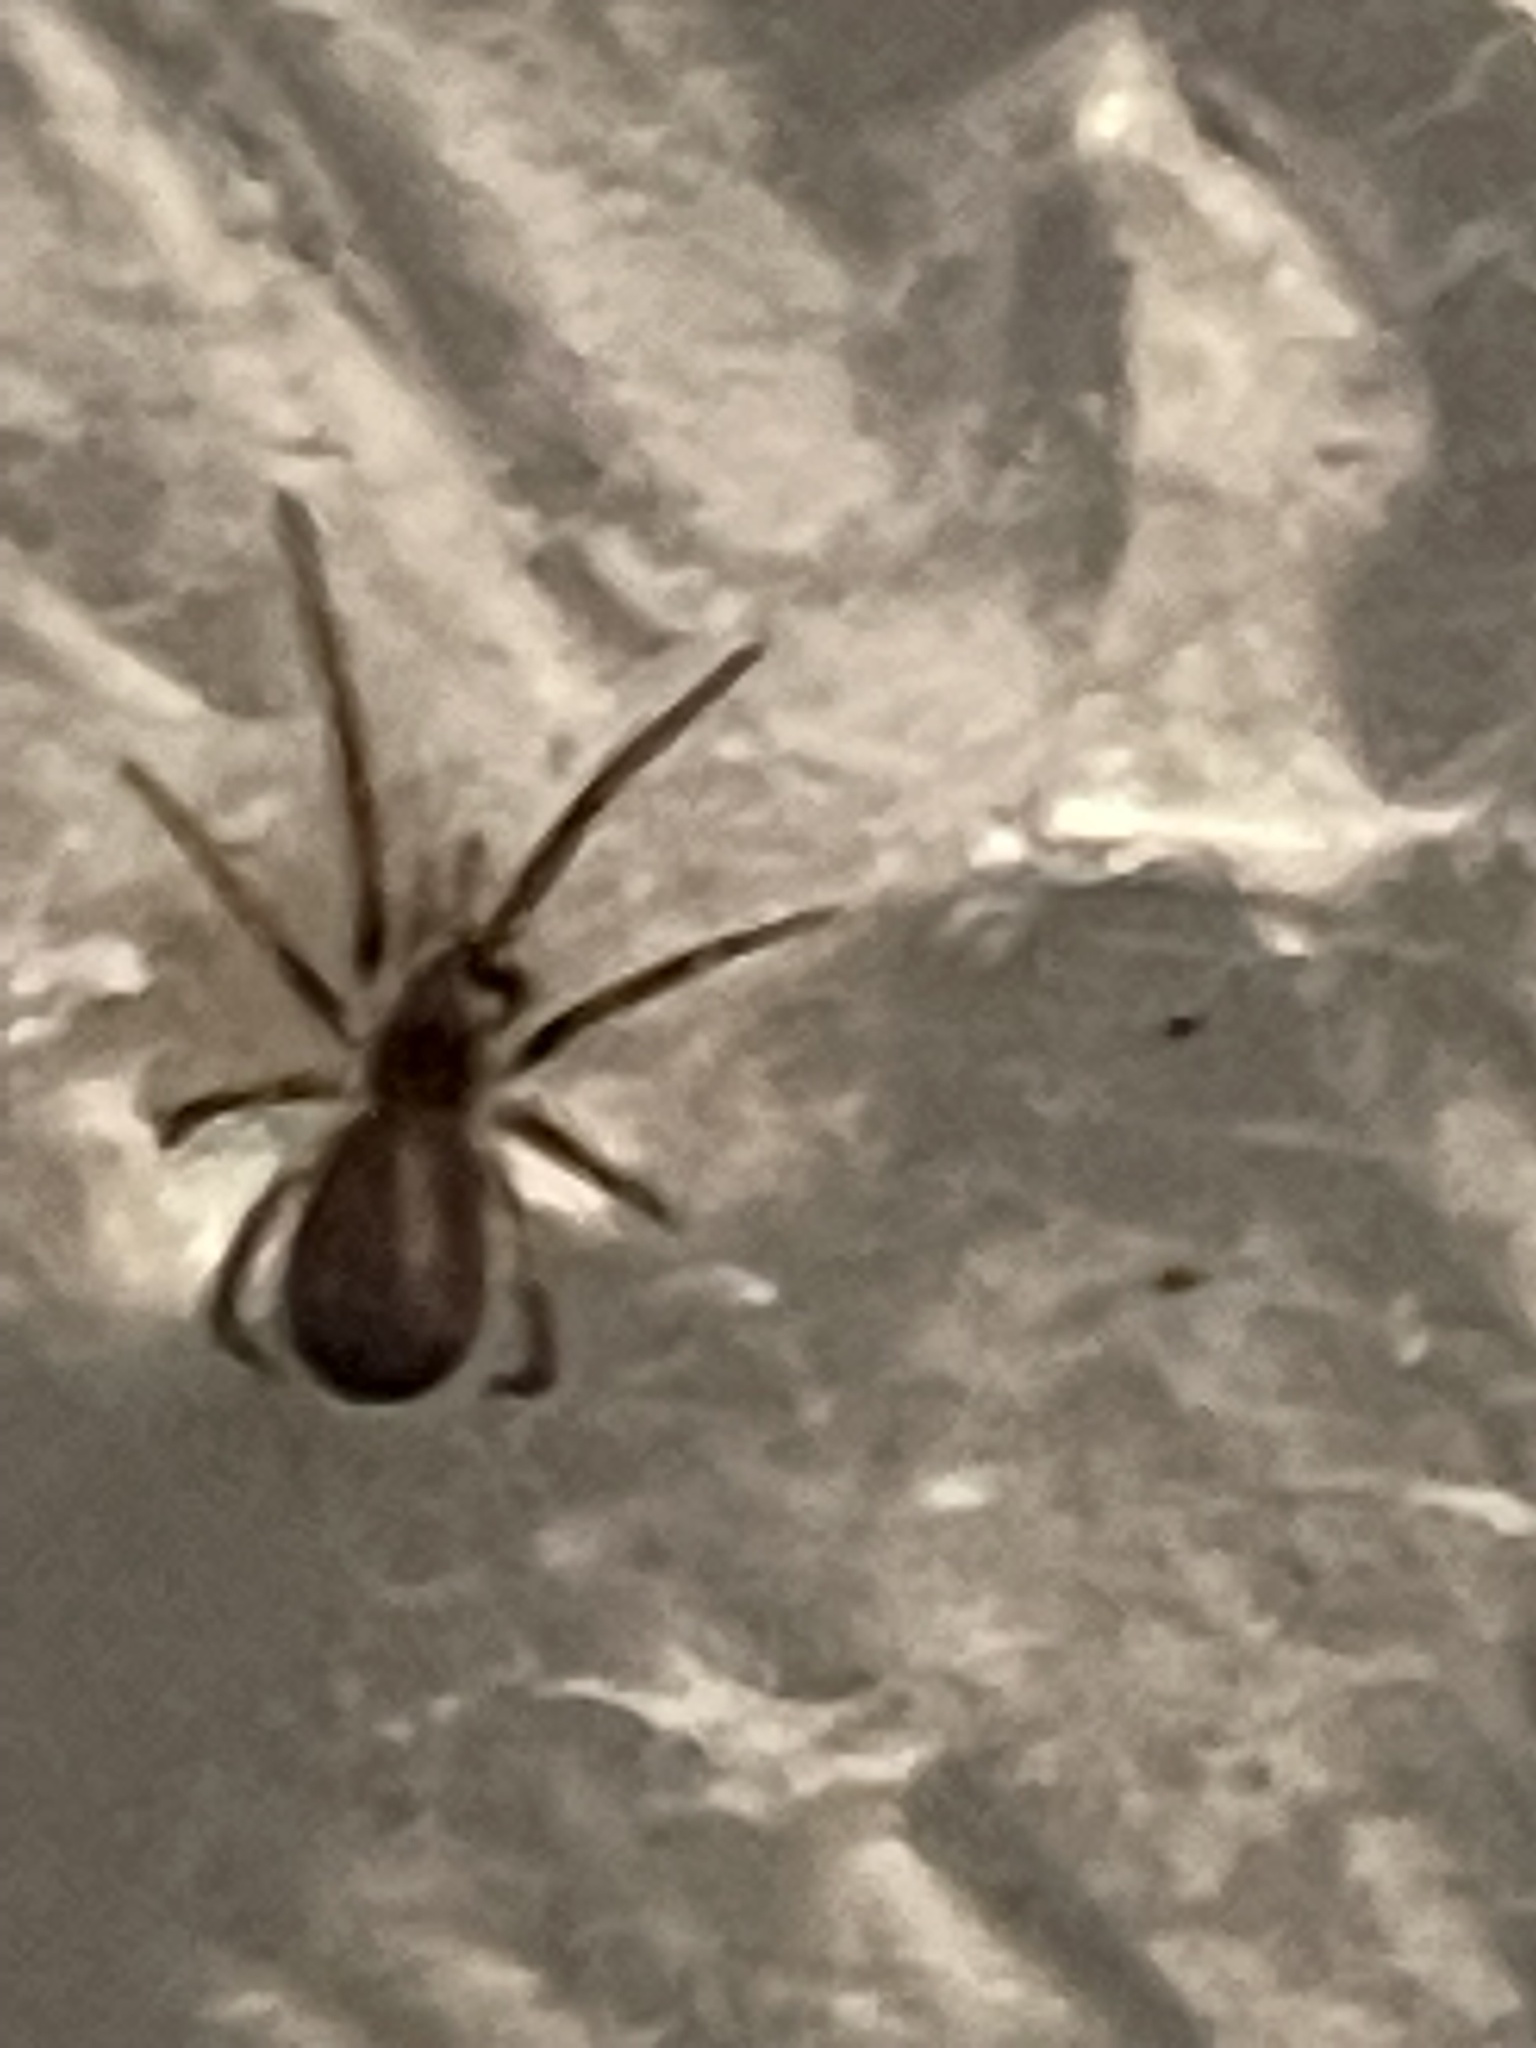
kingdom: Animalia
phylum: Arthropoda
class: Arachnida
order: Araneae
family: Filistatidae
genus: Kukulcania
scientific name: Kukulcania hibernalis
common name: Crevice weaver
